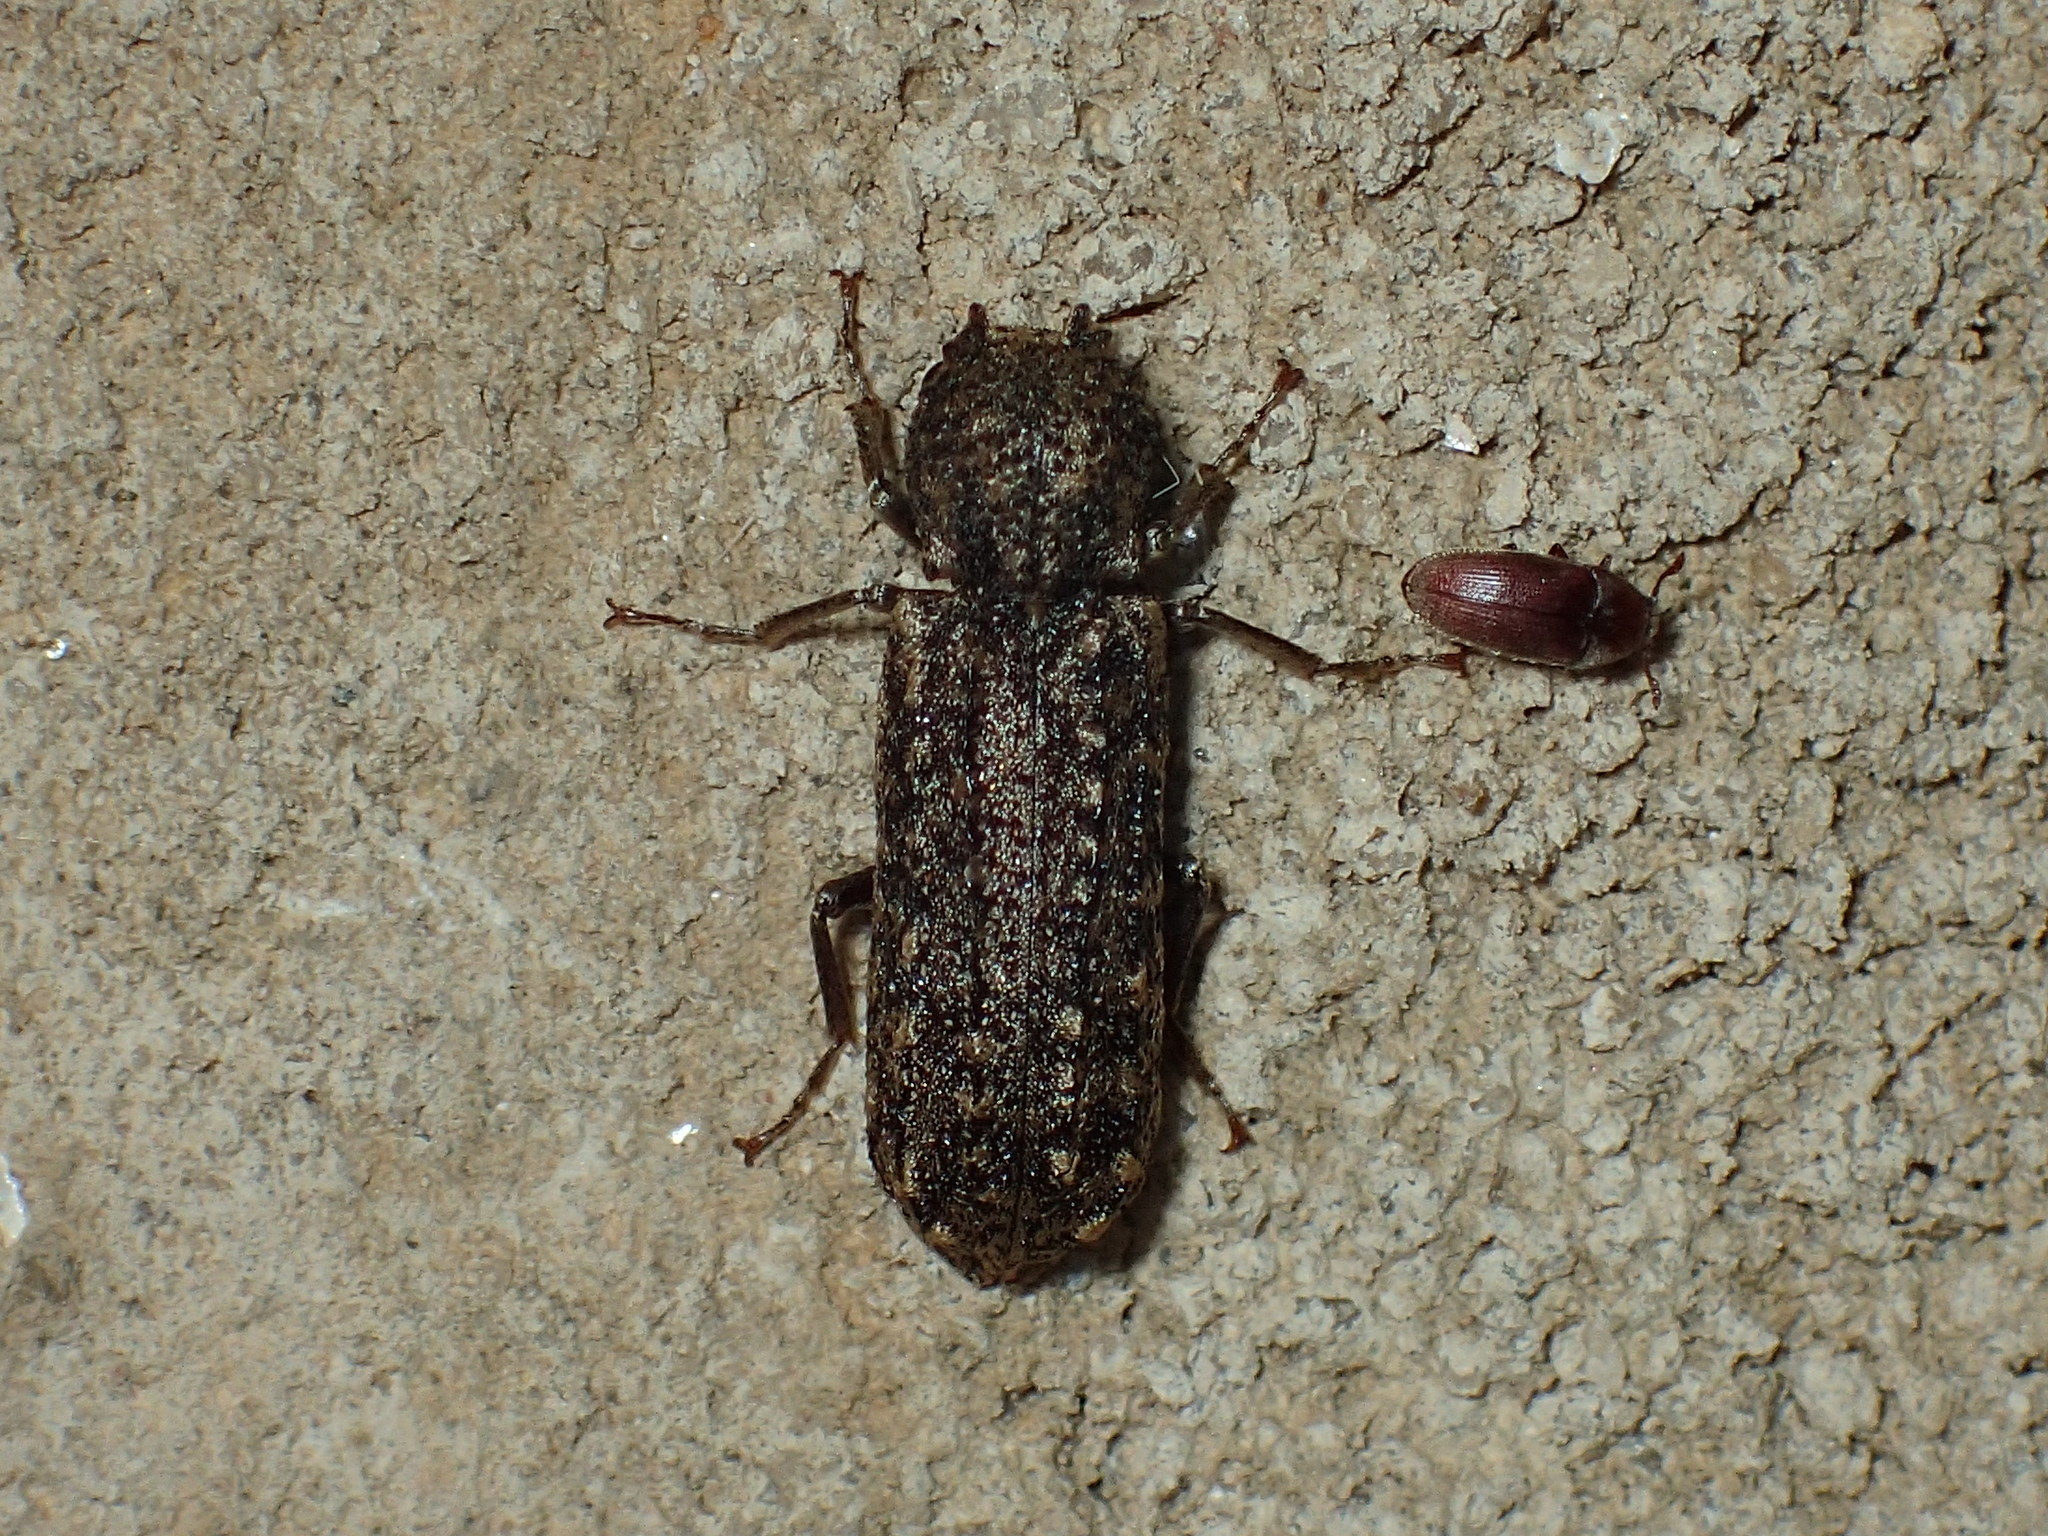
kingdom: Animalia
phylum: Arthropoda
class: Insecta
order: Coleoptera
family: Bostrichidae
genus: Lichenophanes
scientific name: Lichenophanes bicornis
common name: Two-horned powder-post beetle
